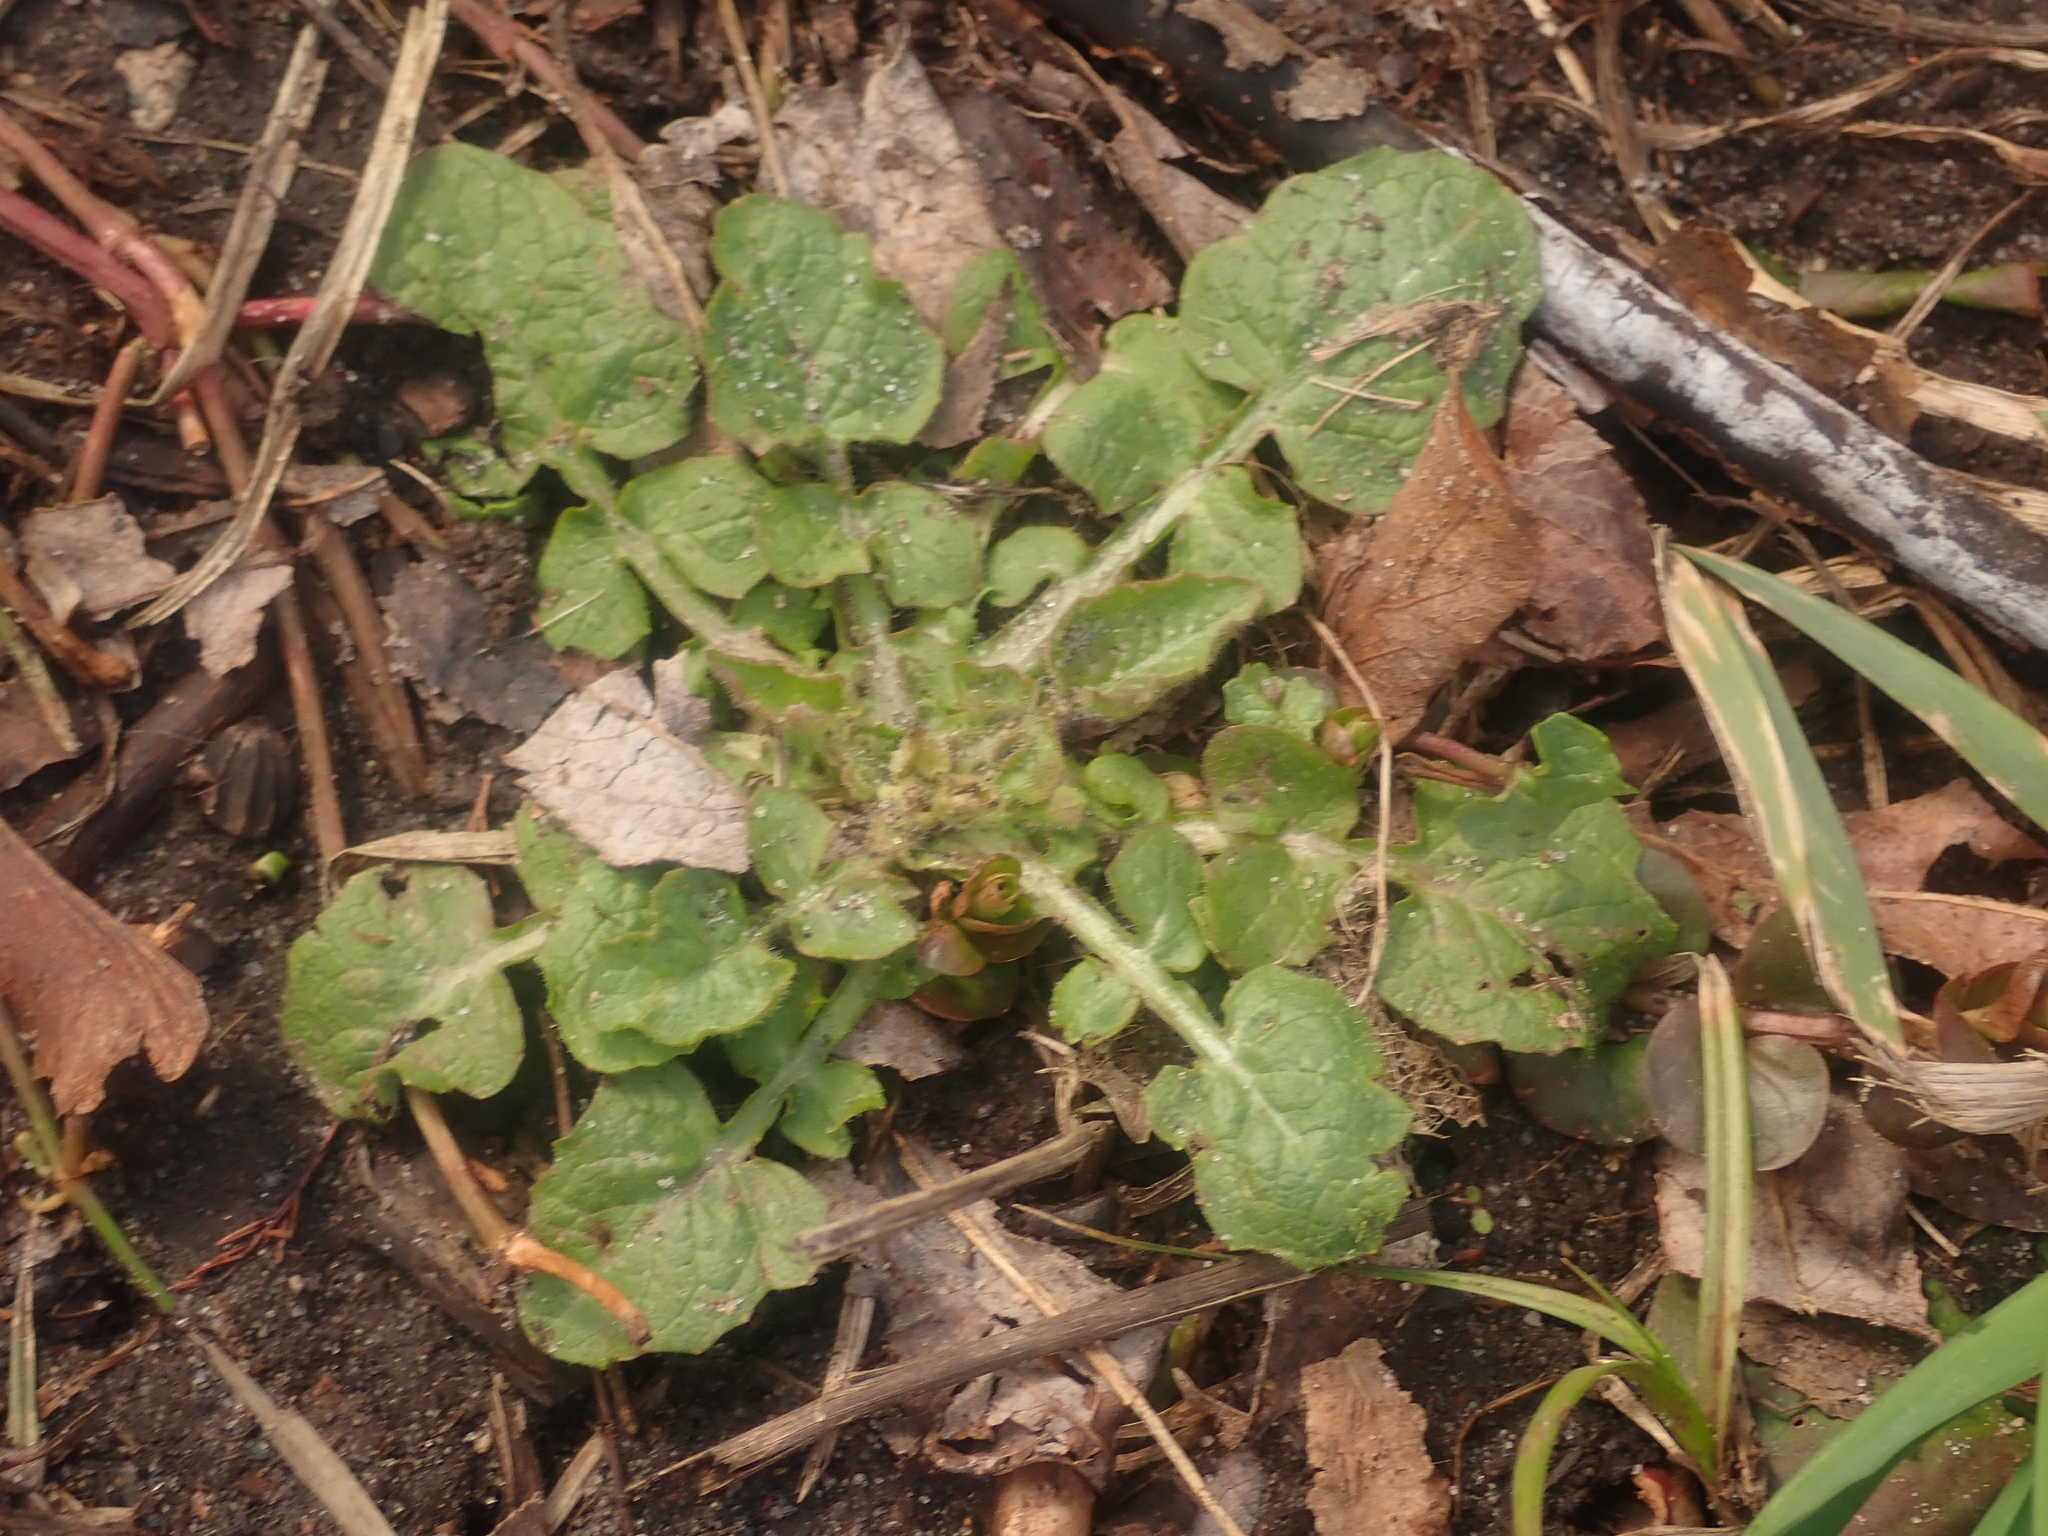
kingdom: Plantae
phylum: Tracheophyta
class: Magnoliopsida
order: Asterales
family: Asteraceae
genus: Lapsana
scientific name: Lapsana communis
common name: Nipplewort
